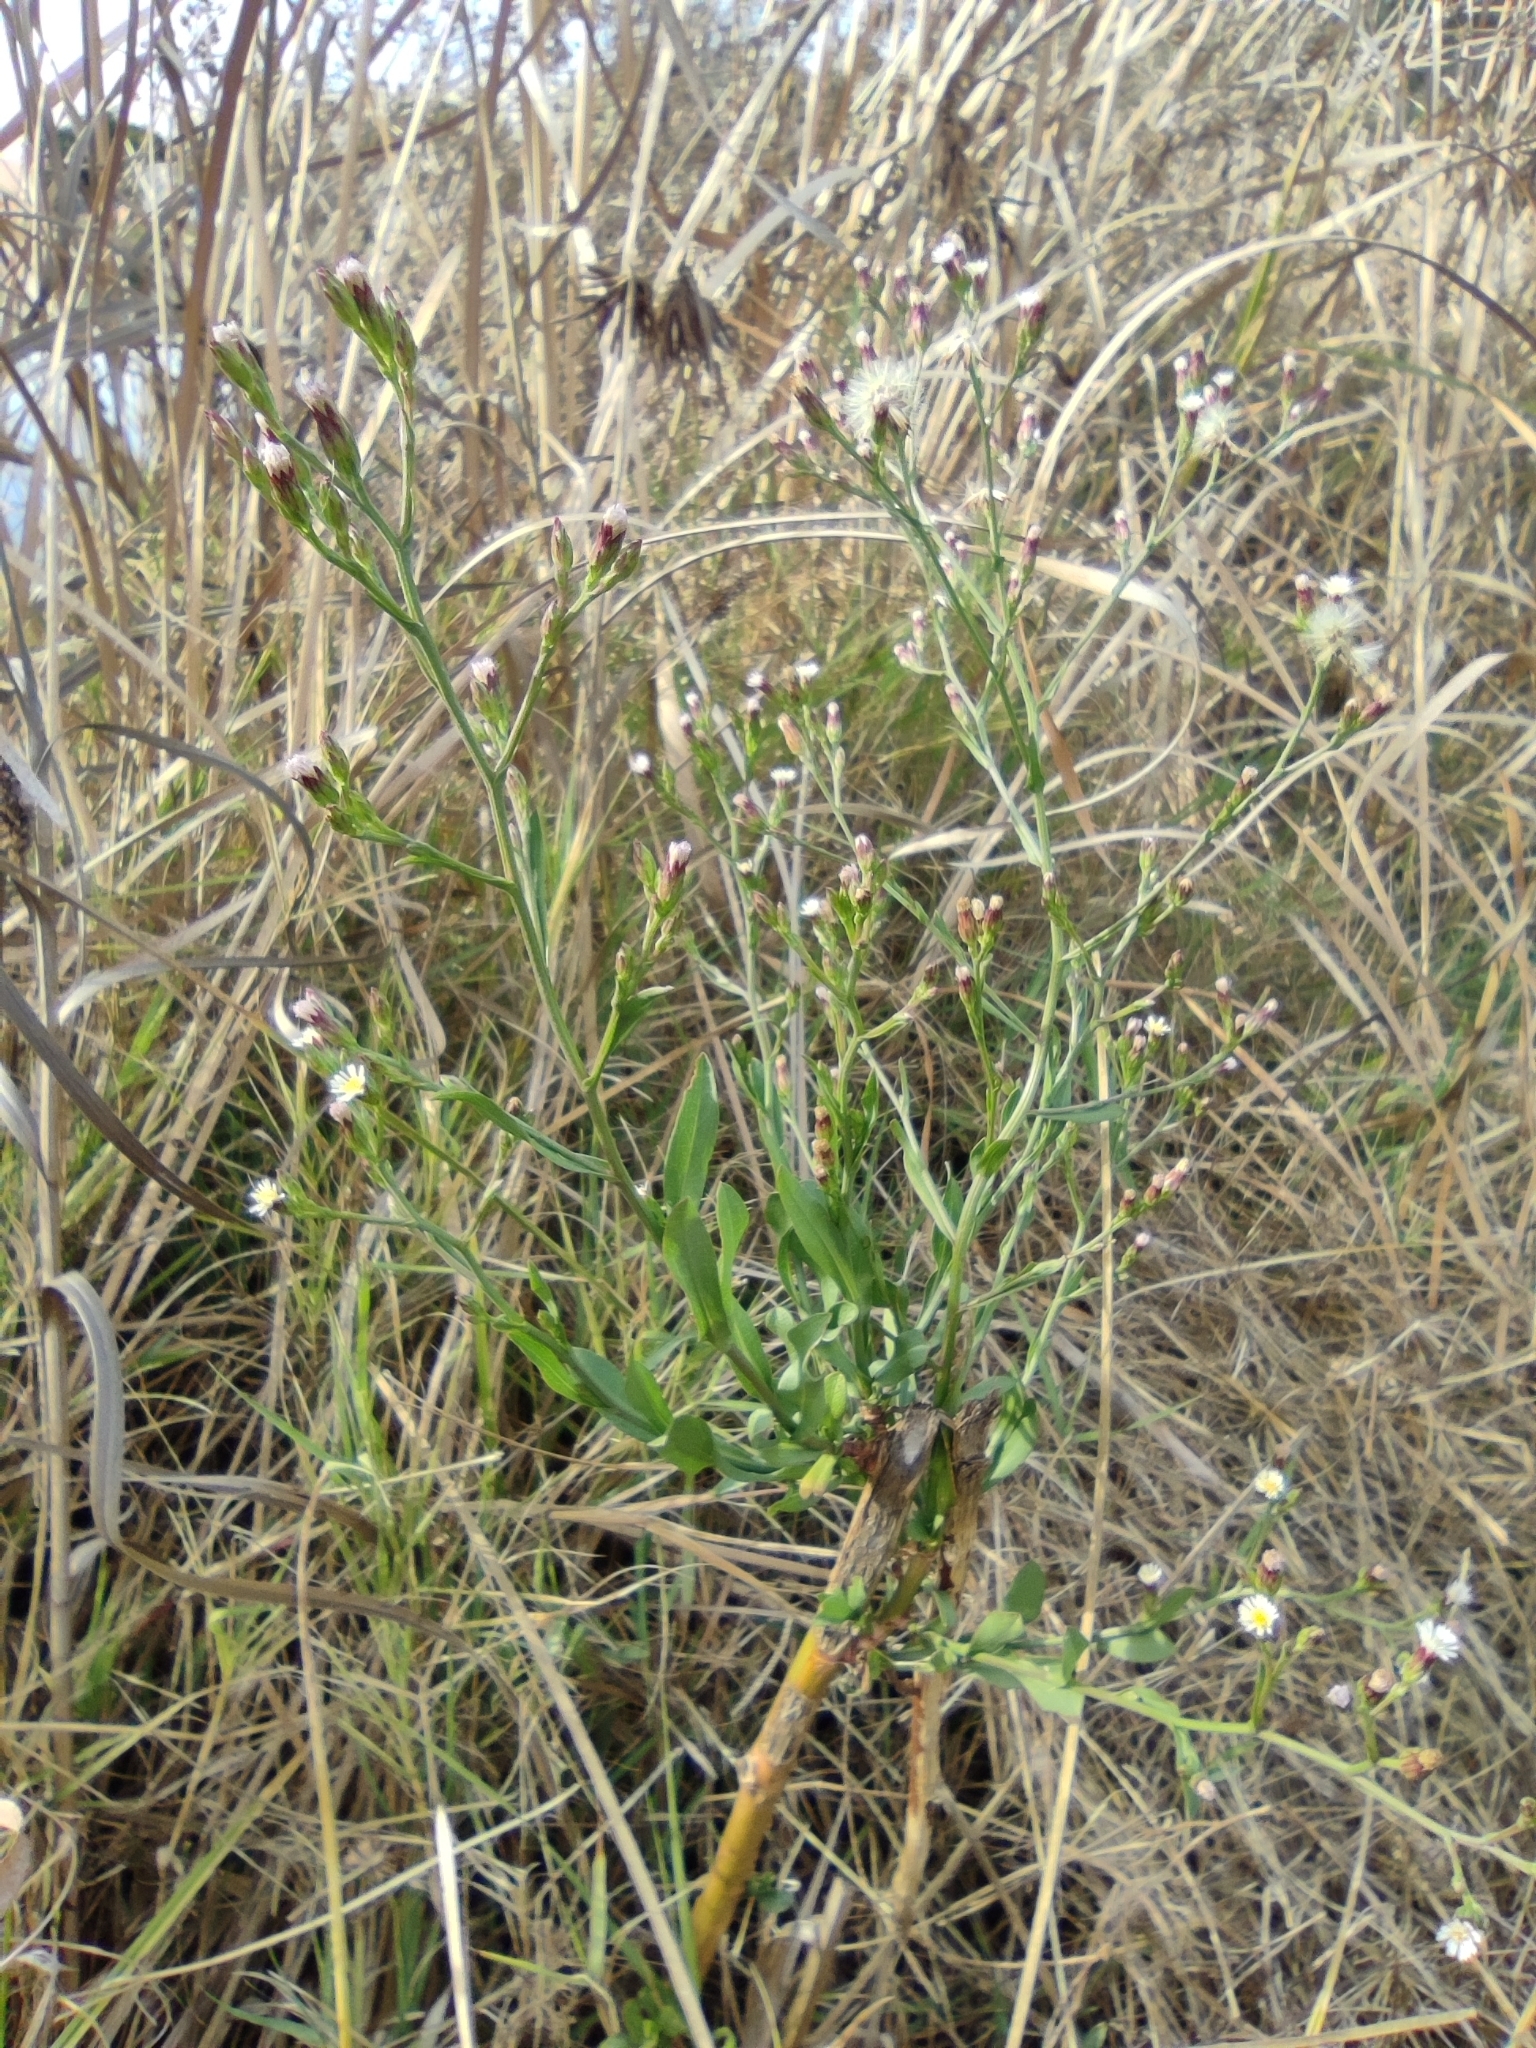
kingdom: Plantae
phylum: Tracheophyta
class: Magnoliopsida
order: Asterales
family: Asteraceae
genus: Symphyotrichum
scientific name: Symphyotrichum squamatum
